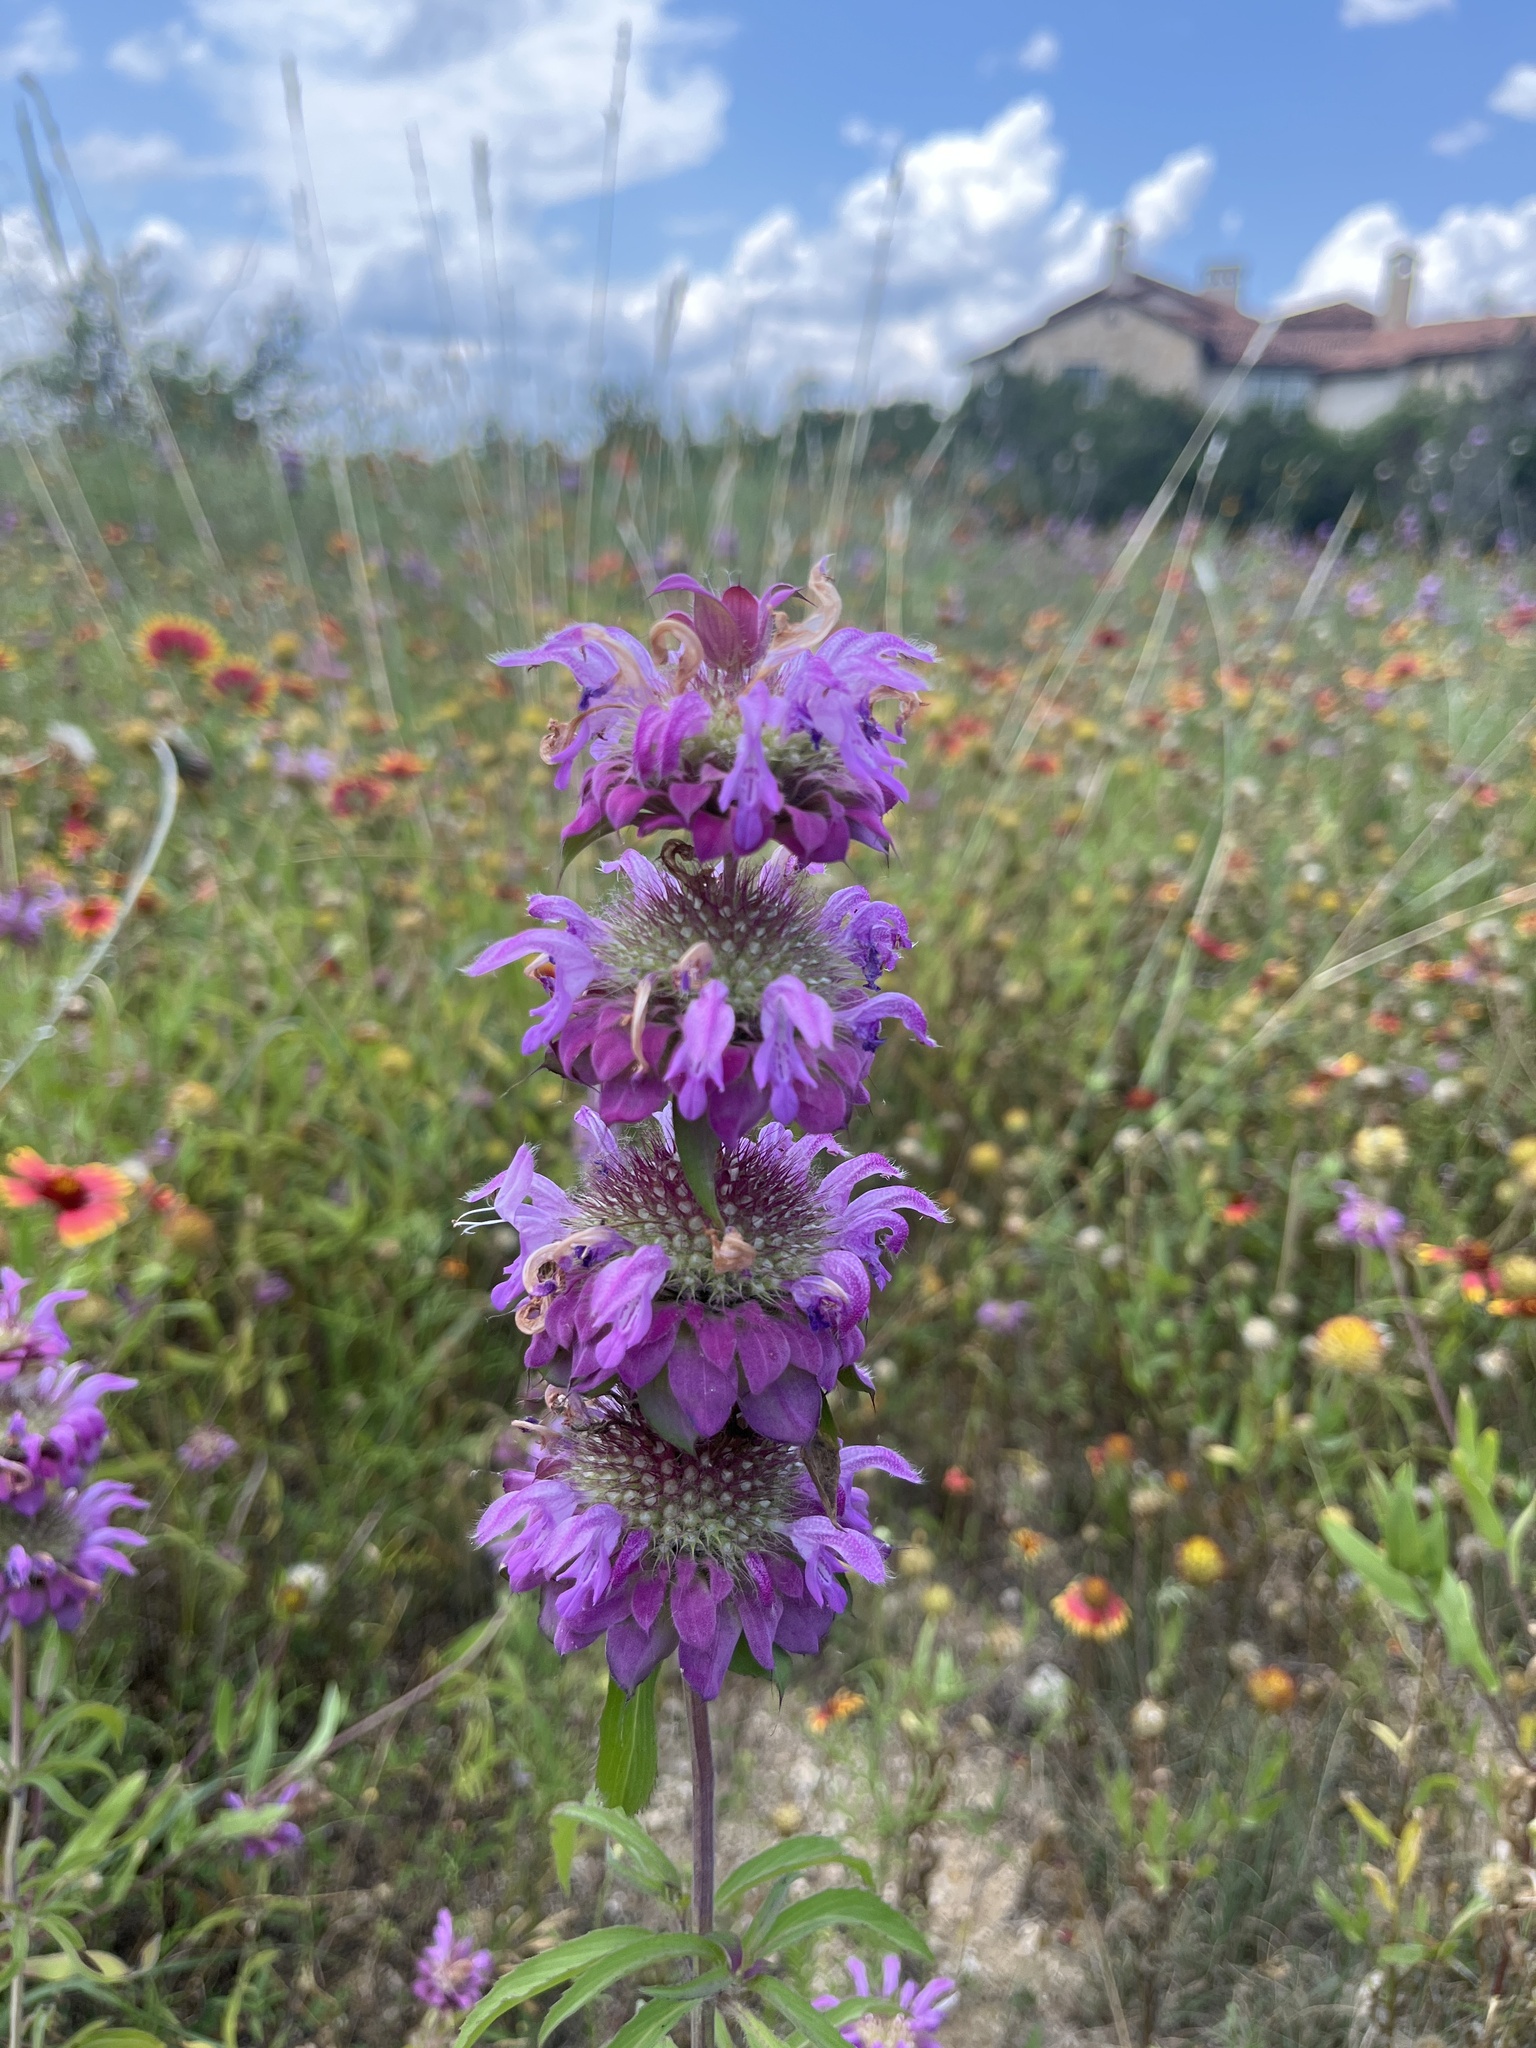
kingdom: Plantae
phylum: Tracheophyta
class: Magnoliopsida
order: Lamiales
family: Lamiaceae
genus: Monarda
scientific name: Monarda citriodora
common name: Lemon beebalm
